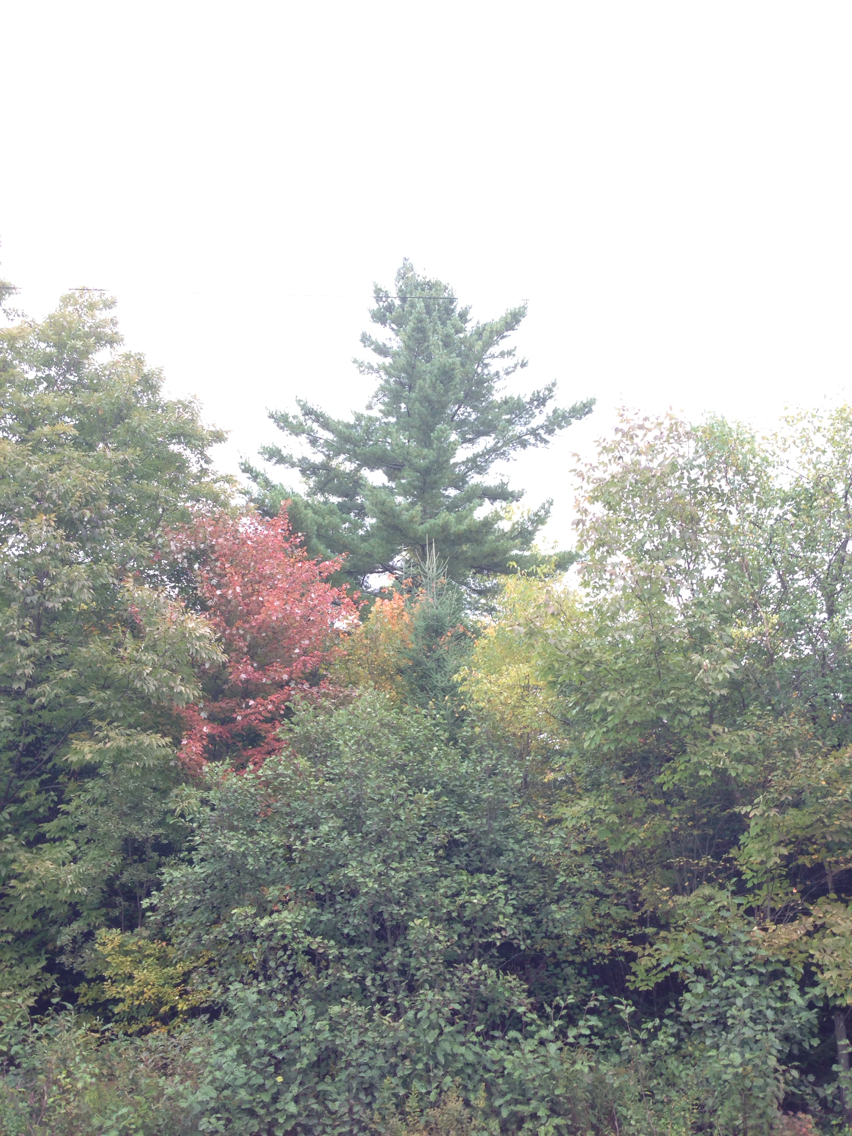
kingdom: Plantae
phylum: Tracheophyta
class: Pinopsida
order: Pinales
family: Pinaceae
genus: Pinus
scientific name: Pinus strobus
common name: Weymouth pine
